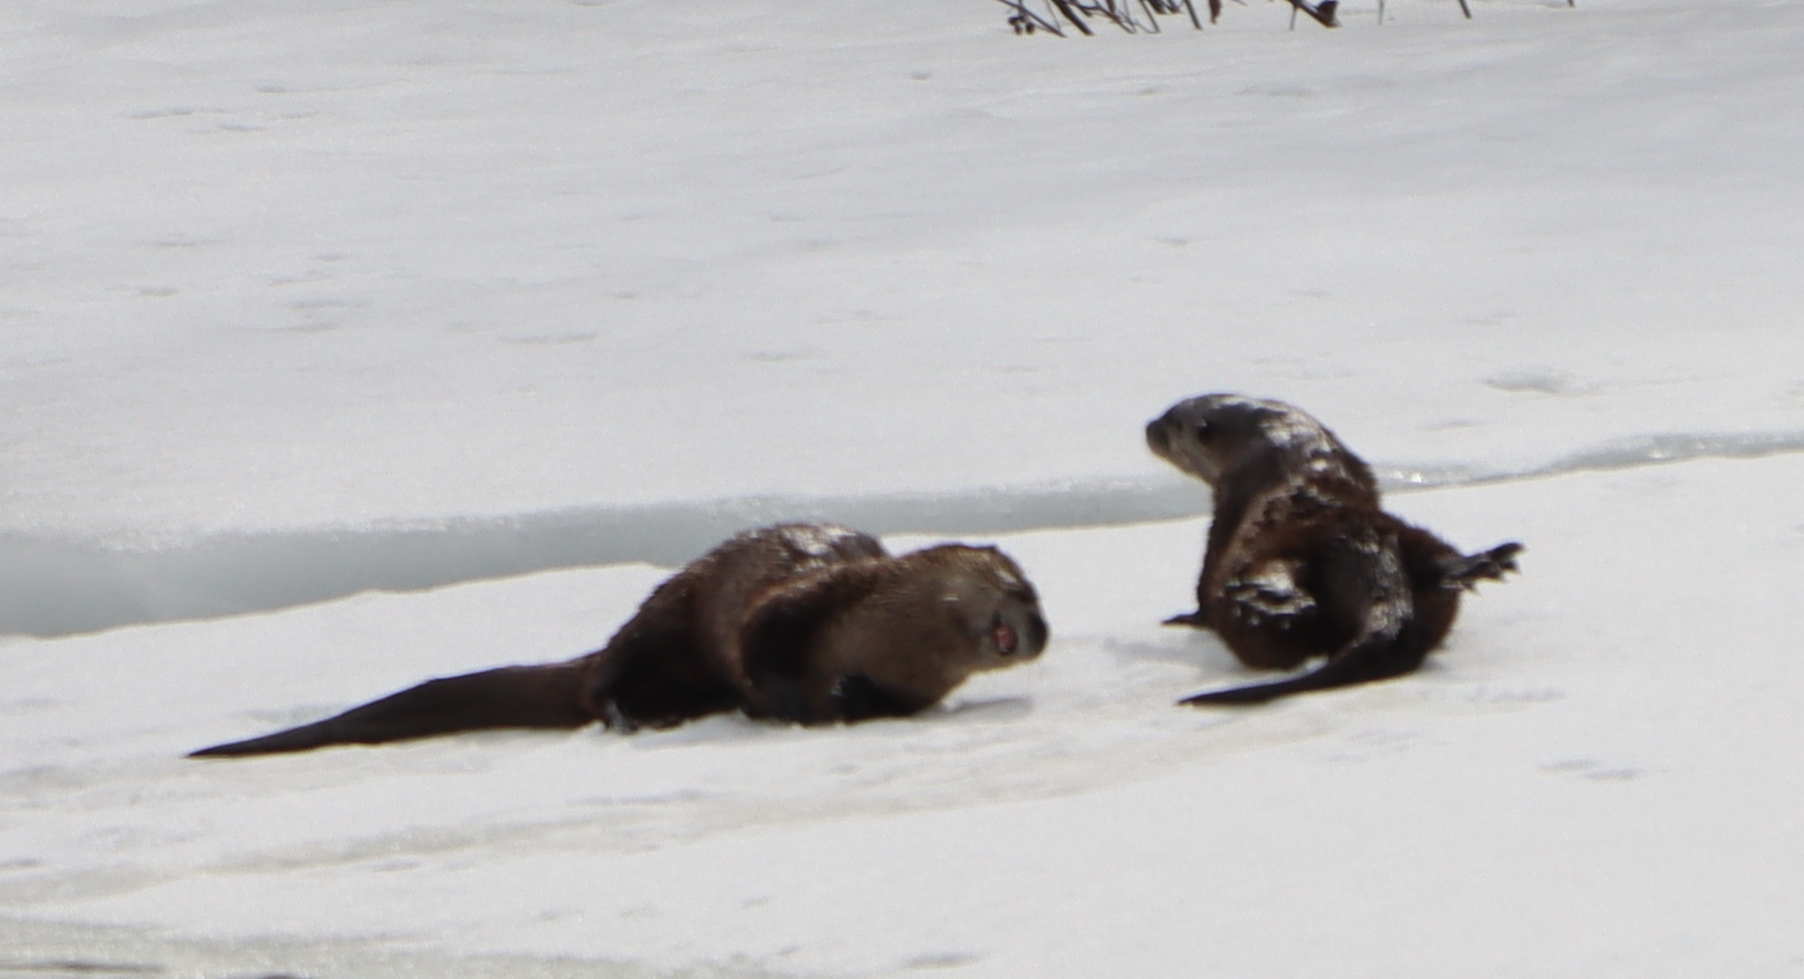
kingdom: Animalia
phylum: Chordata
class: Mammalia
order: Carnivora
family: Mustelidae
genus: Lontra
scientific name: Lontra canadensis
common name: North american river otter
